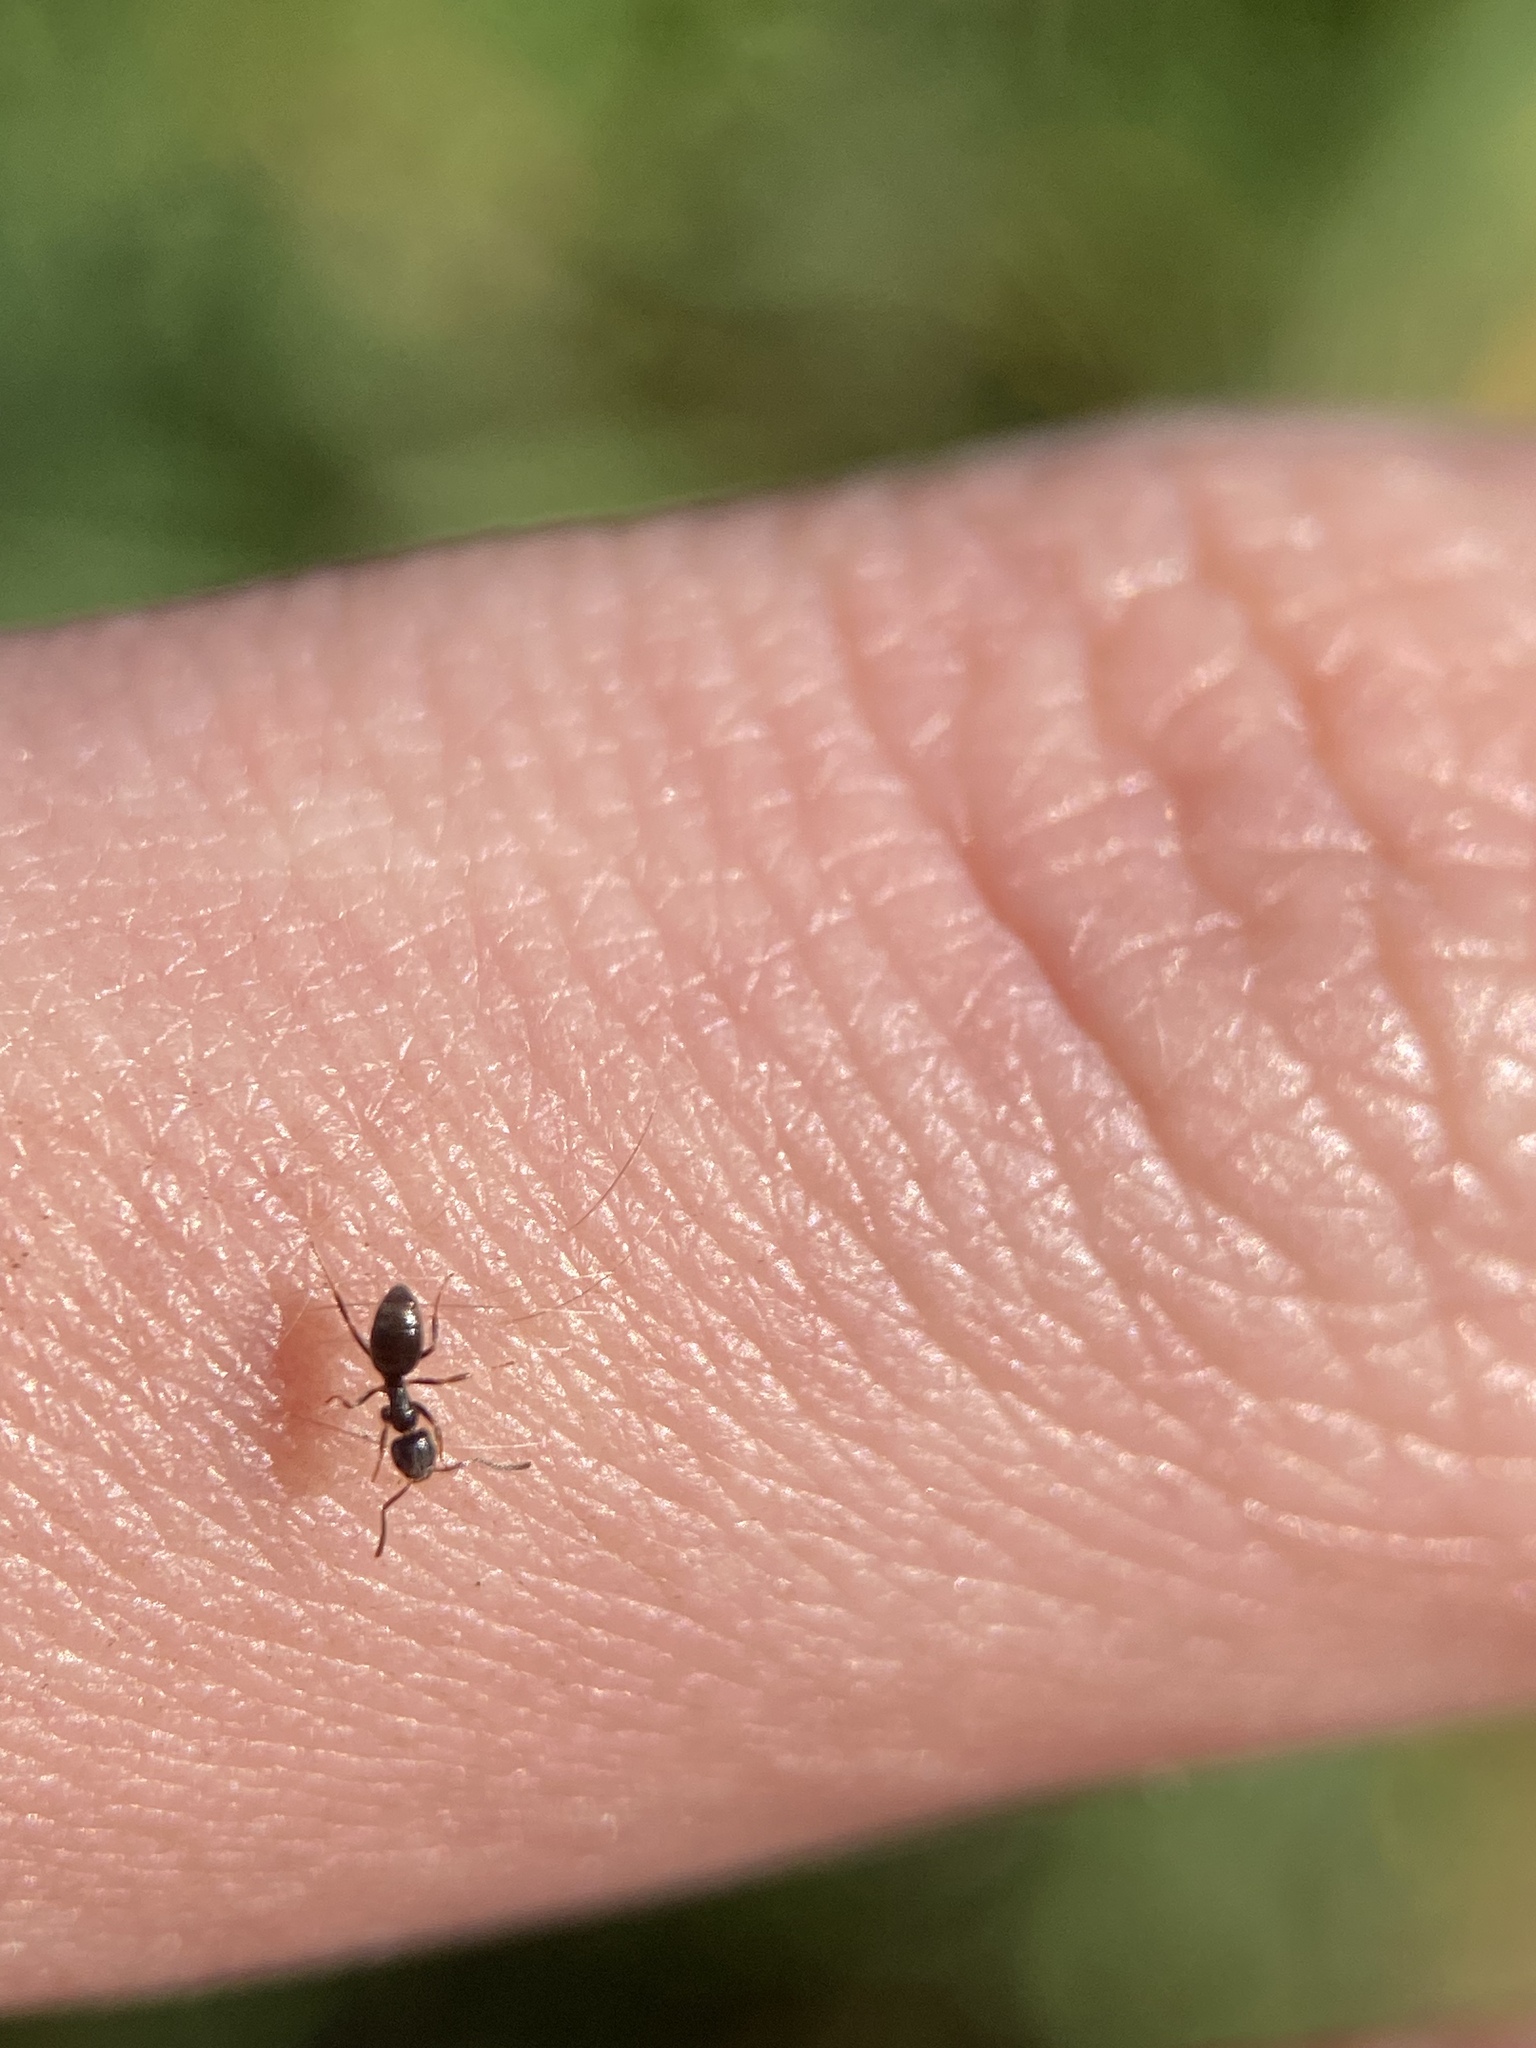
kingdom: Animalia
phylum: Arthropoda
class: Insecta
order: Hymenoptera
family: Formicidae
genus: Tapinoma
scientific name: Tapinoma sessile
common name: Odorous house ant
